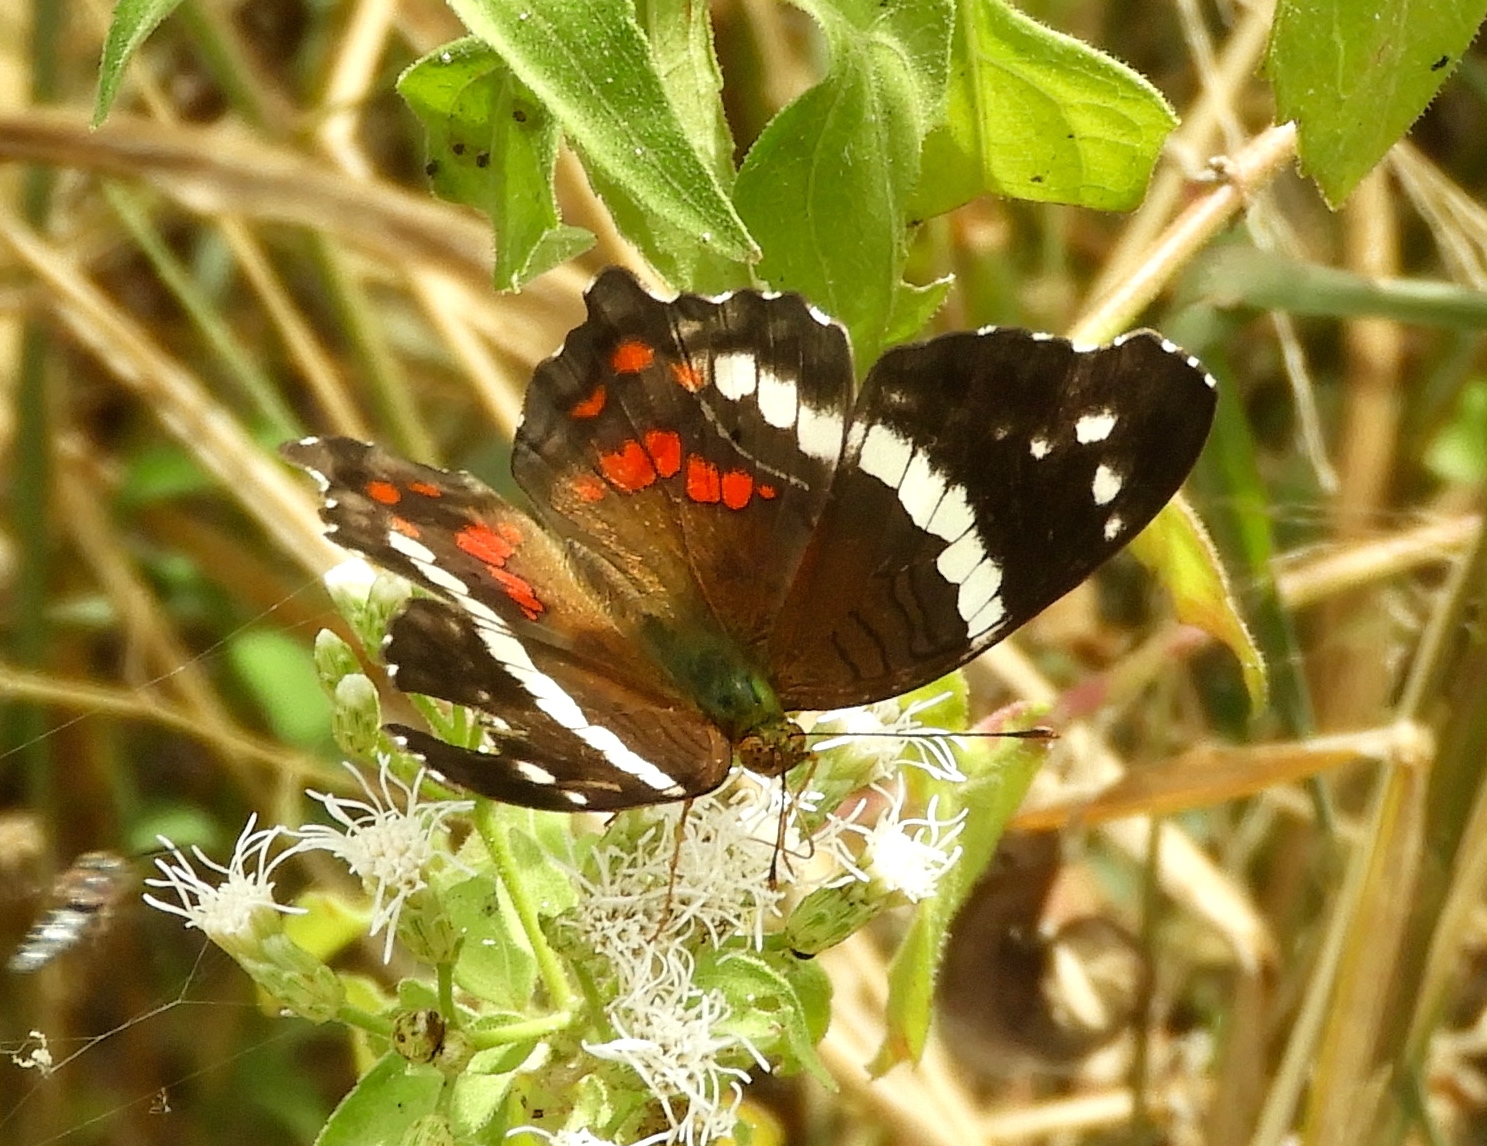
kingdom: Animalia
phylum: Arthropoda
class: Insecta
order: Lepidoptera
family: Nymphalidae
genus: Anartia
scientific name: Anartia fatima
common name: Banded peacock
